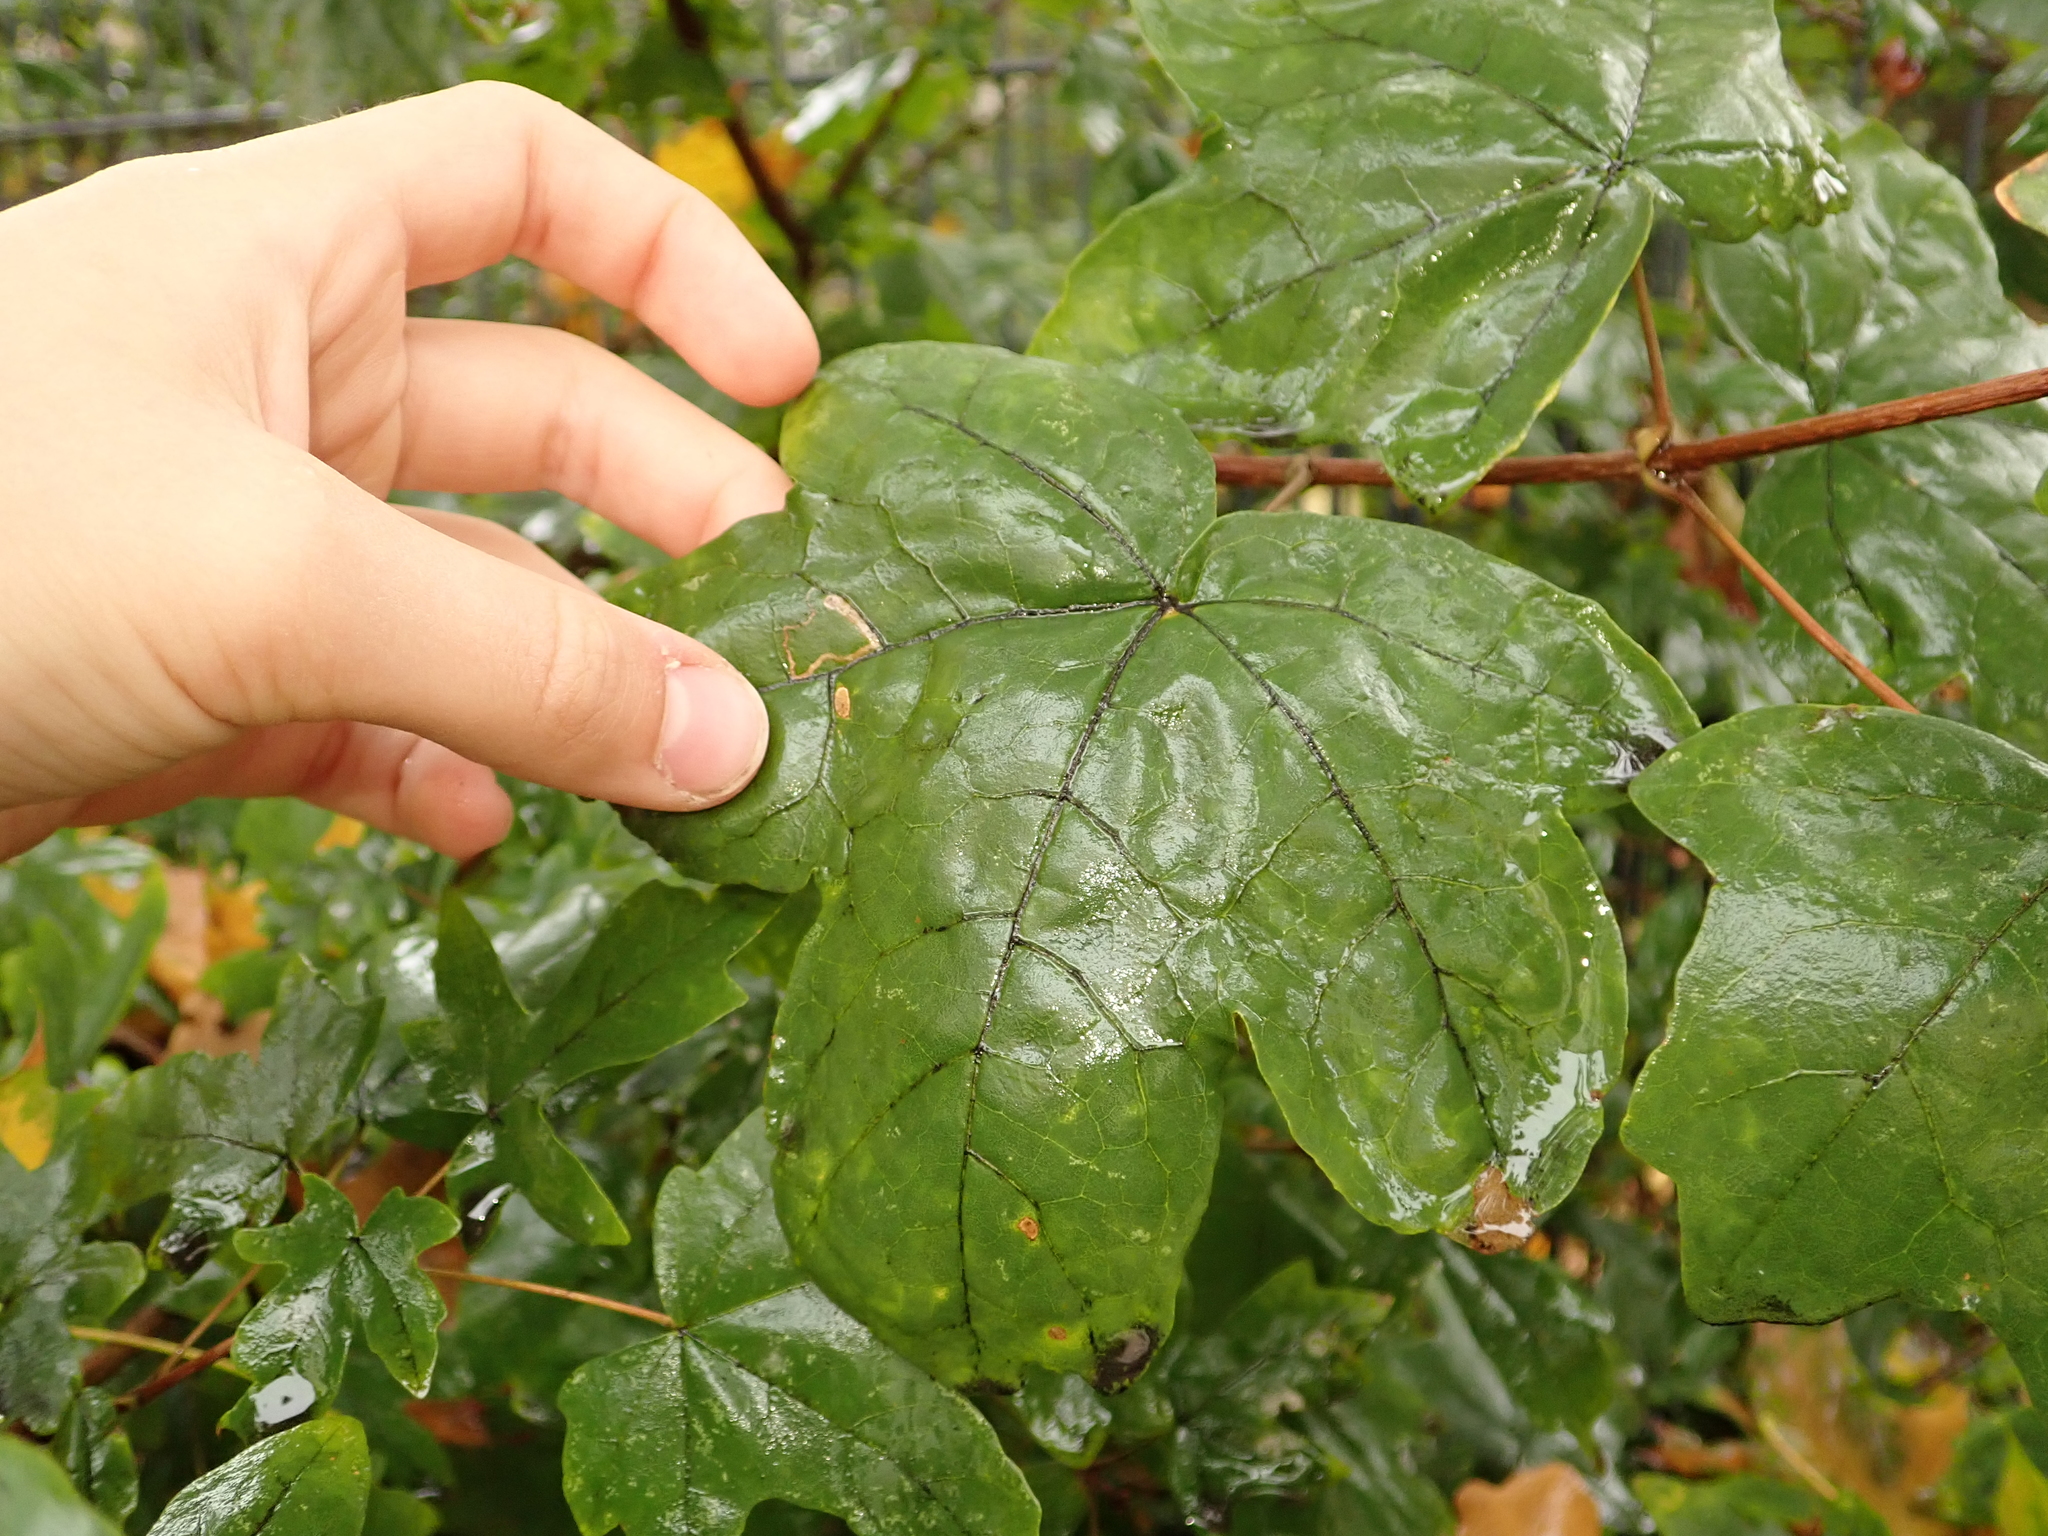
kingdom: Plantae
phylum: Tracheophyta
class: Magnoliopsida
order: Sapindales
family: Sapindaceae
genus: Acer
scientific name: Acer campestre
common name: Field maple
